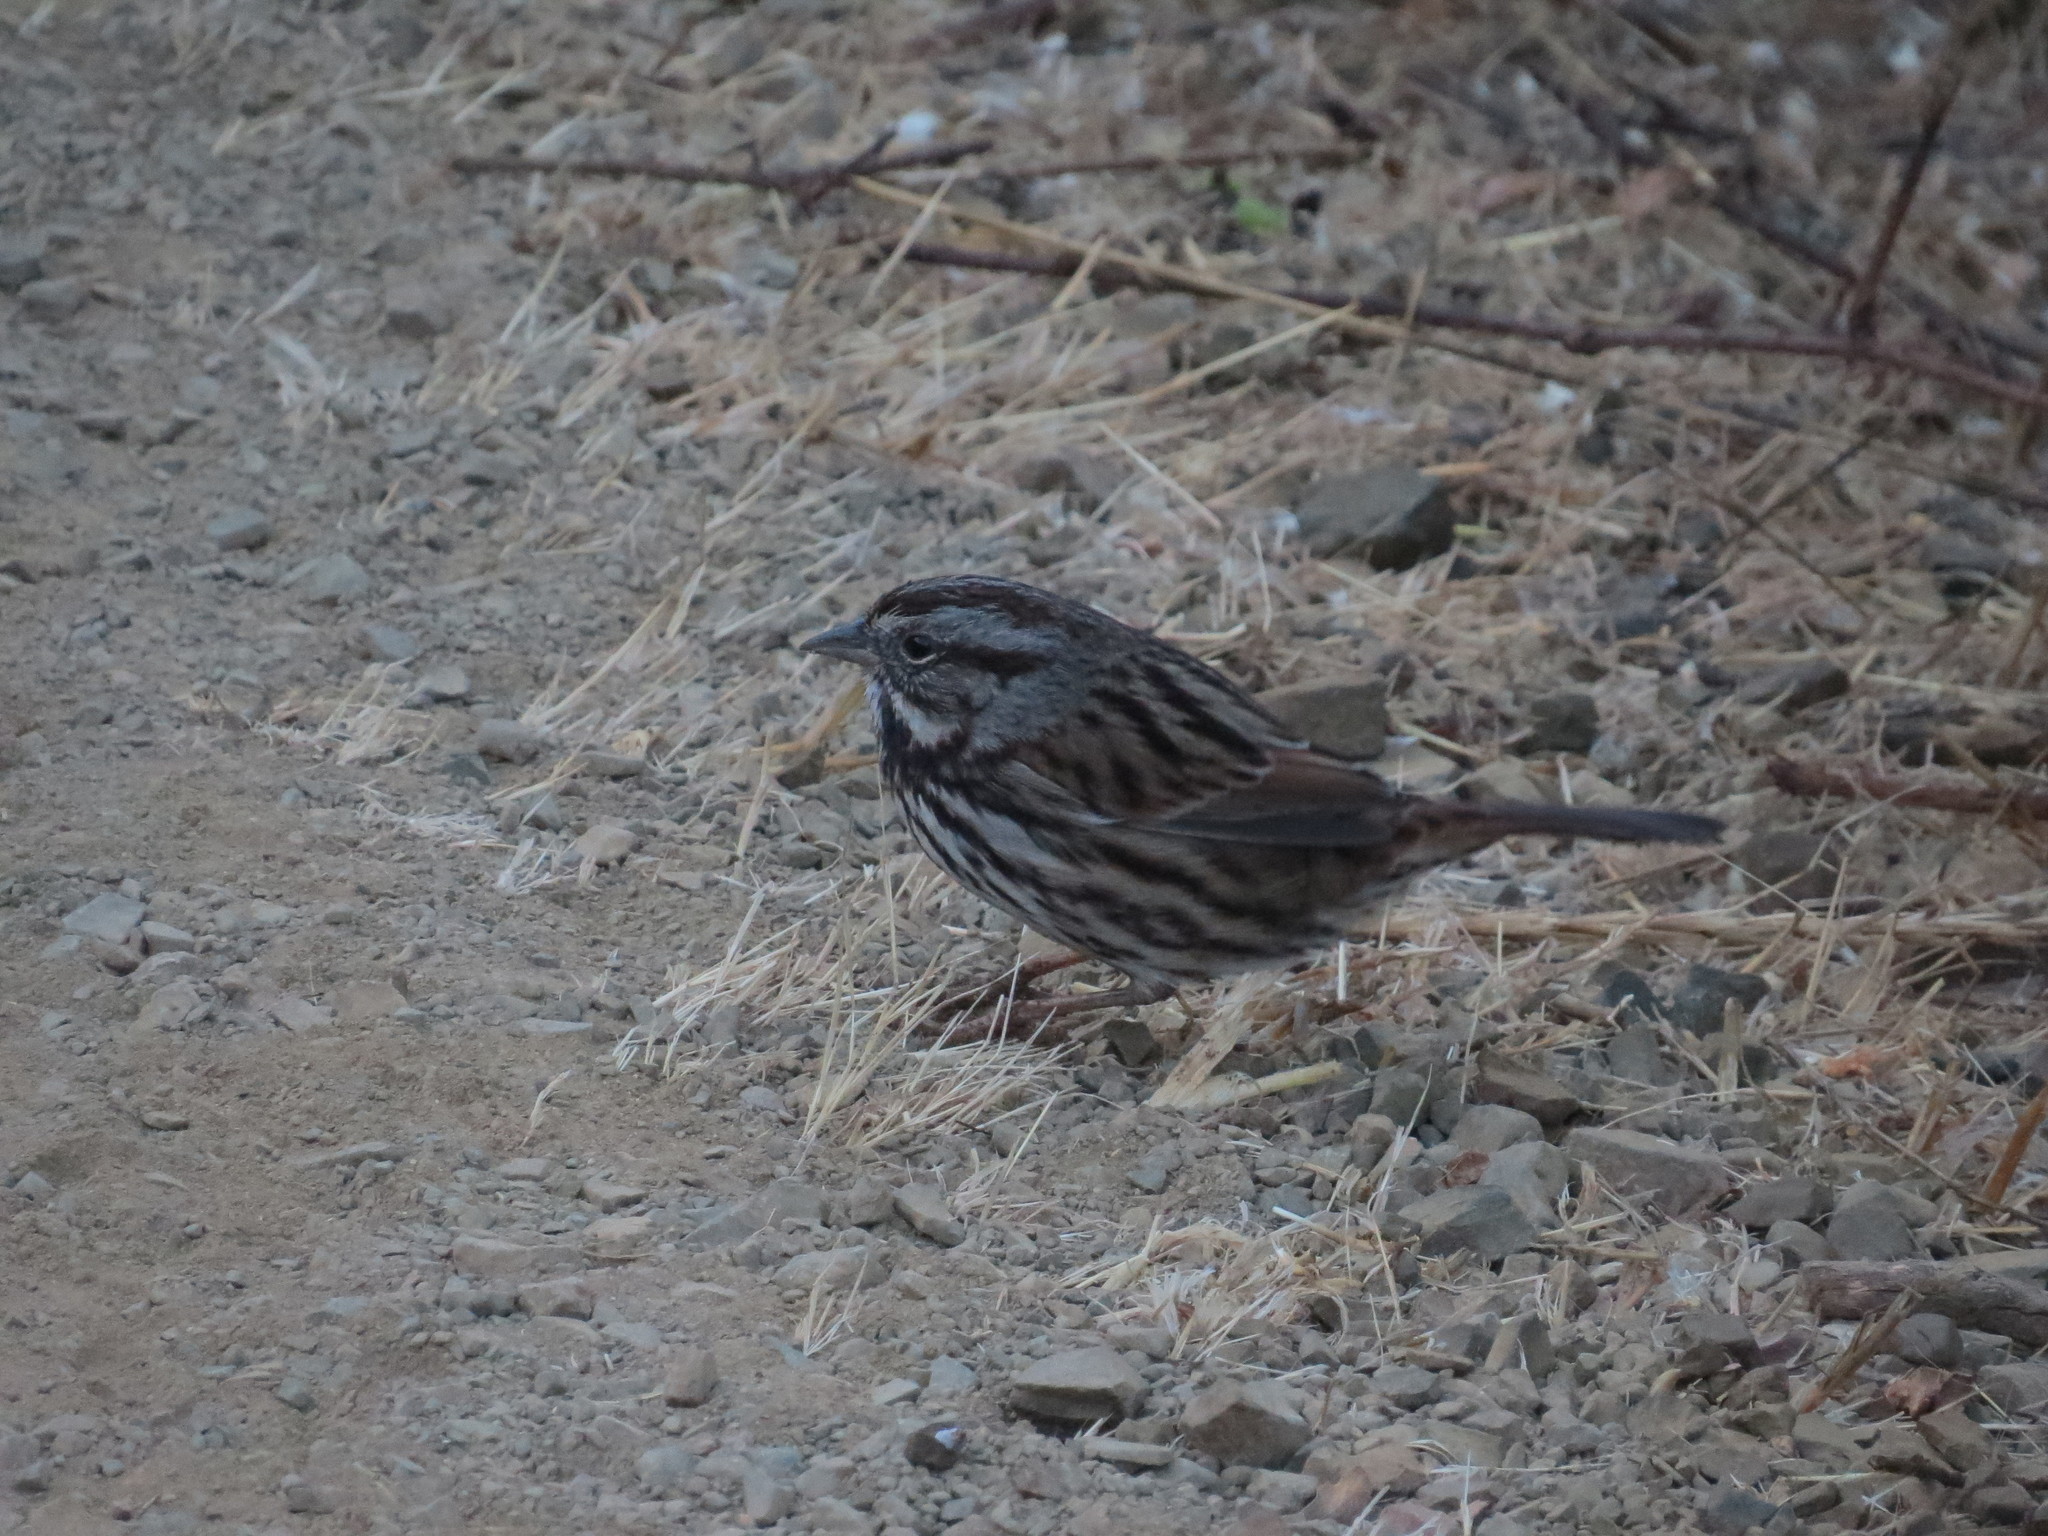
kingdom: Animalia
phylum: Chordata
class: Aves
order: Passeriformes
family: Passerellidae
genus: Melospiza
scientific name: Melospiza melodia
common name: Song sparrow
